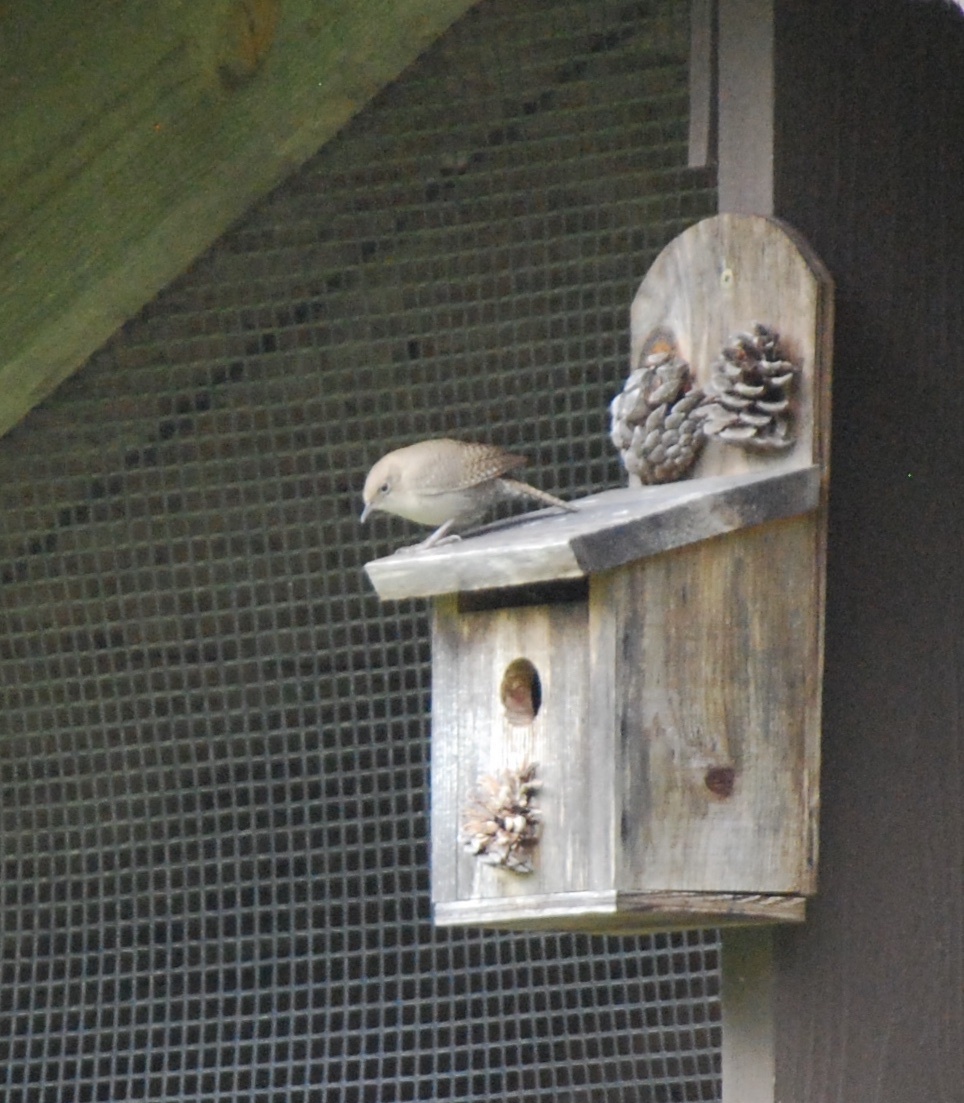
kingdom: Animalia
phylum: Chordata
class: Aves
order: Passeriformes
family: Troglodytidae
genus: Troglodytes
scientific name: Troglodytes aedon
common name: House wren
